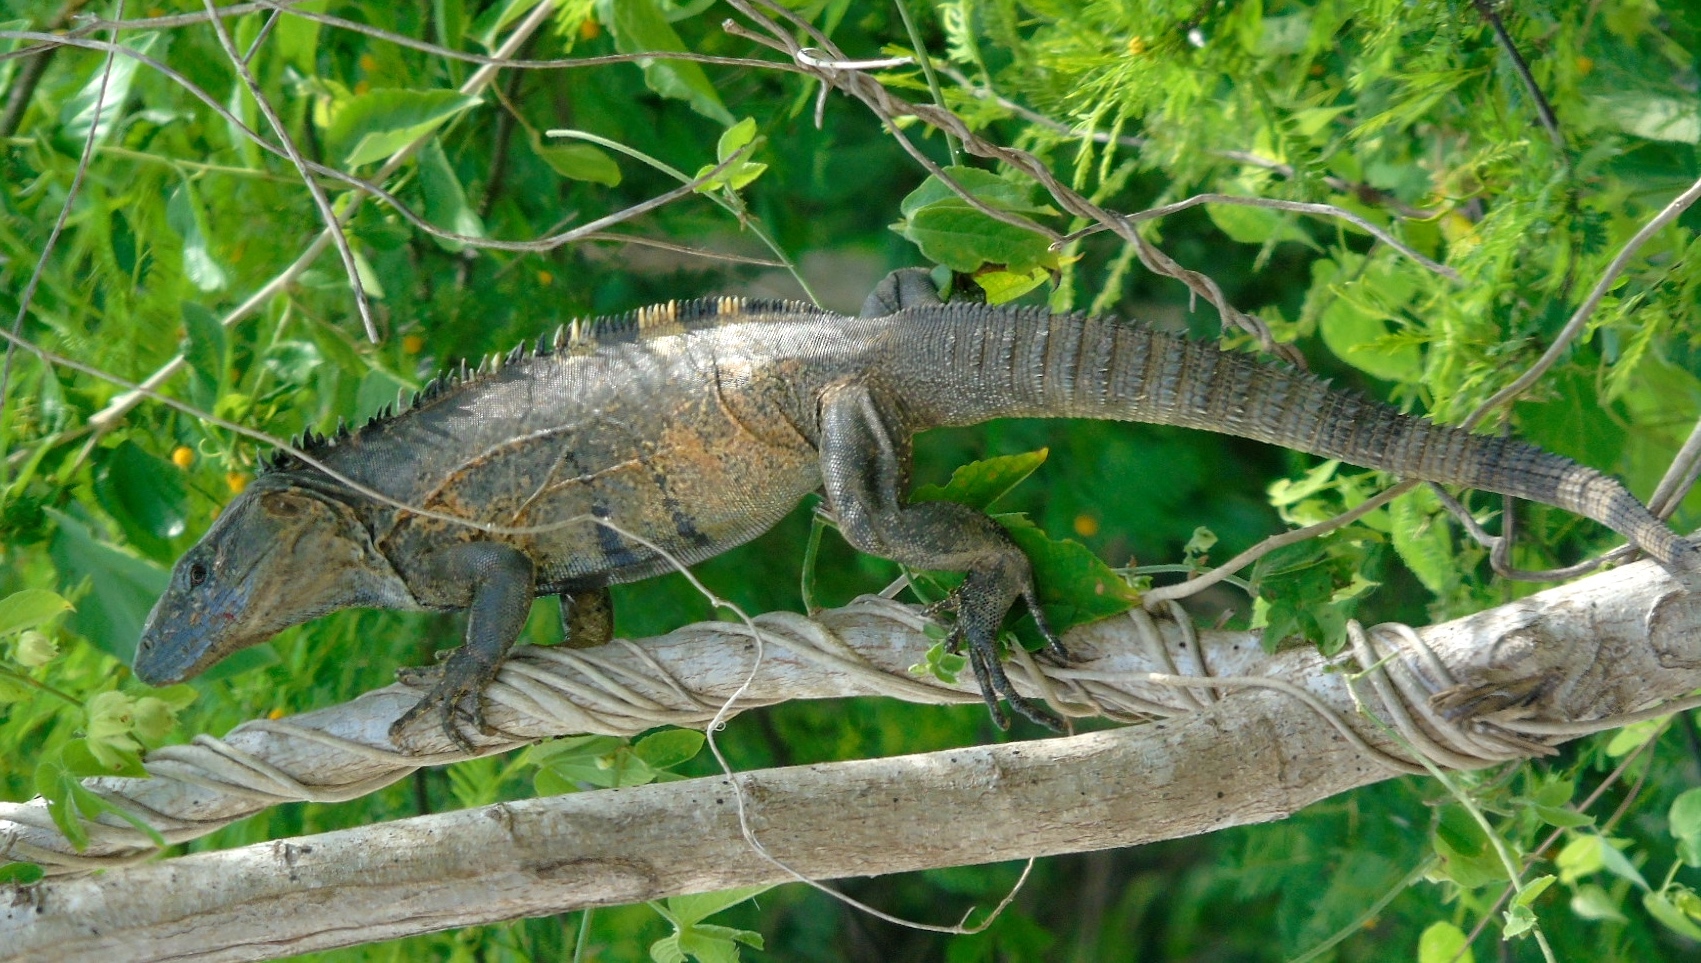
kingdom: Animalia
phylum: Chordata
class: Squamata
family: Iguanidae
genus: Ctenosaura
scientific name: Ctenosaura pectinata
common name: Guerreran spiny-tailed iguana
